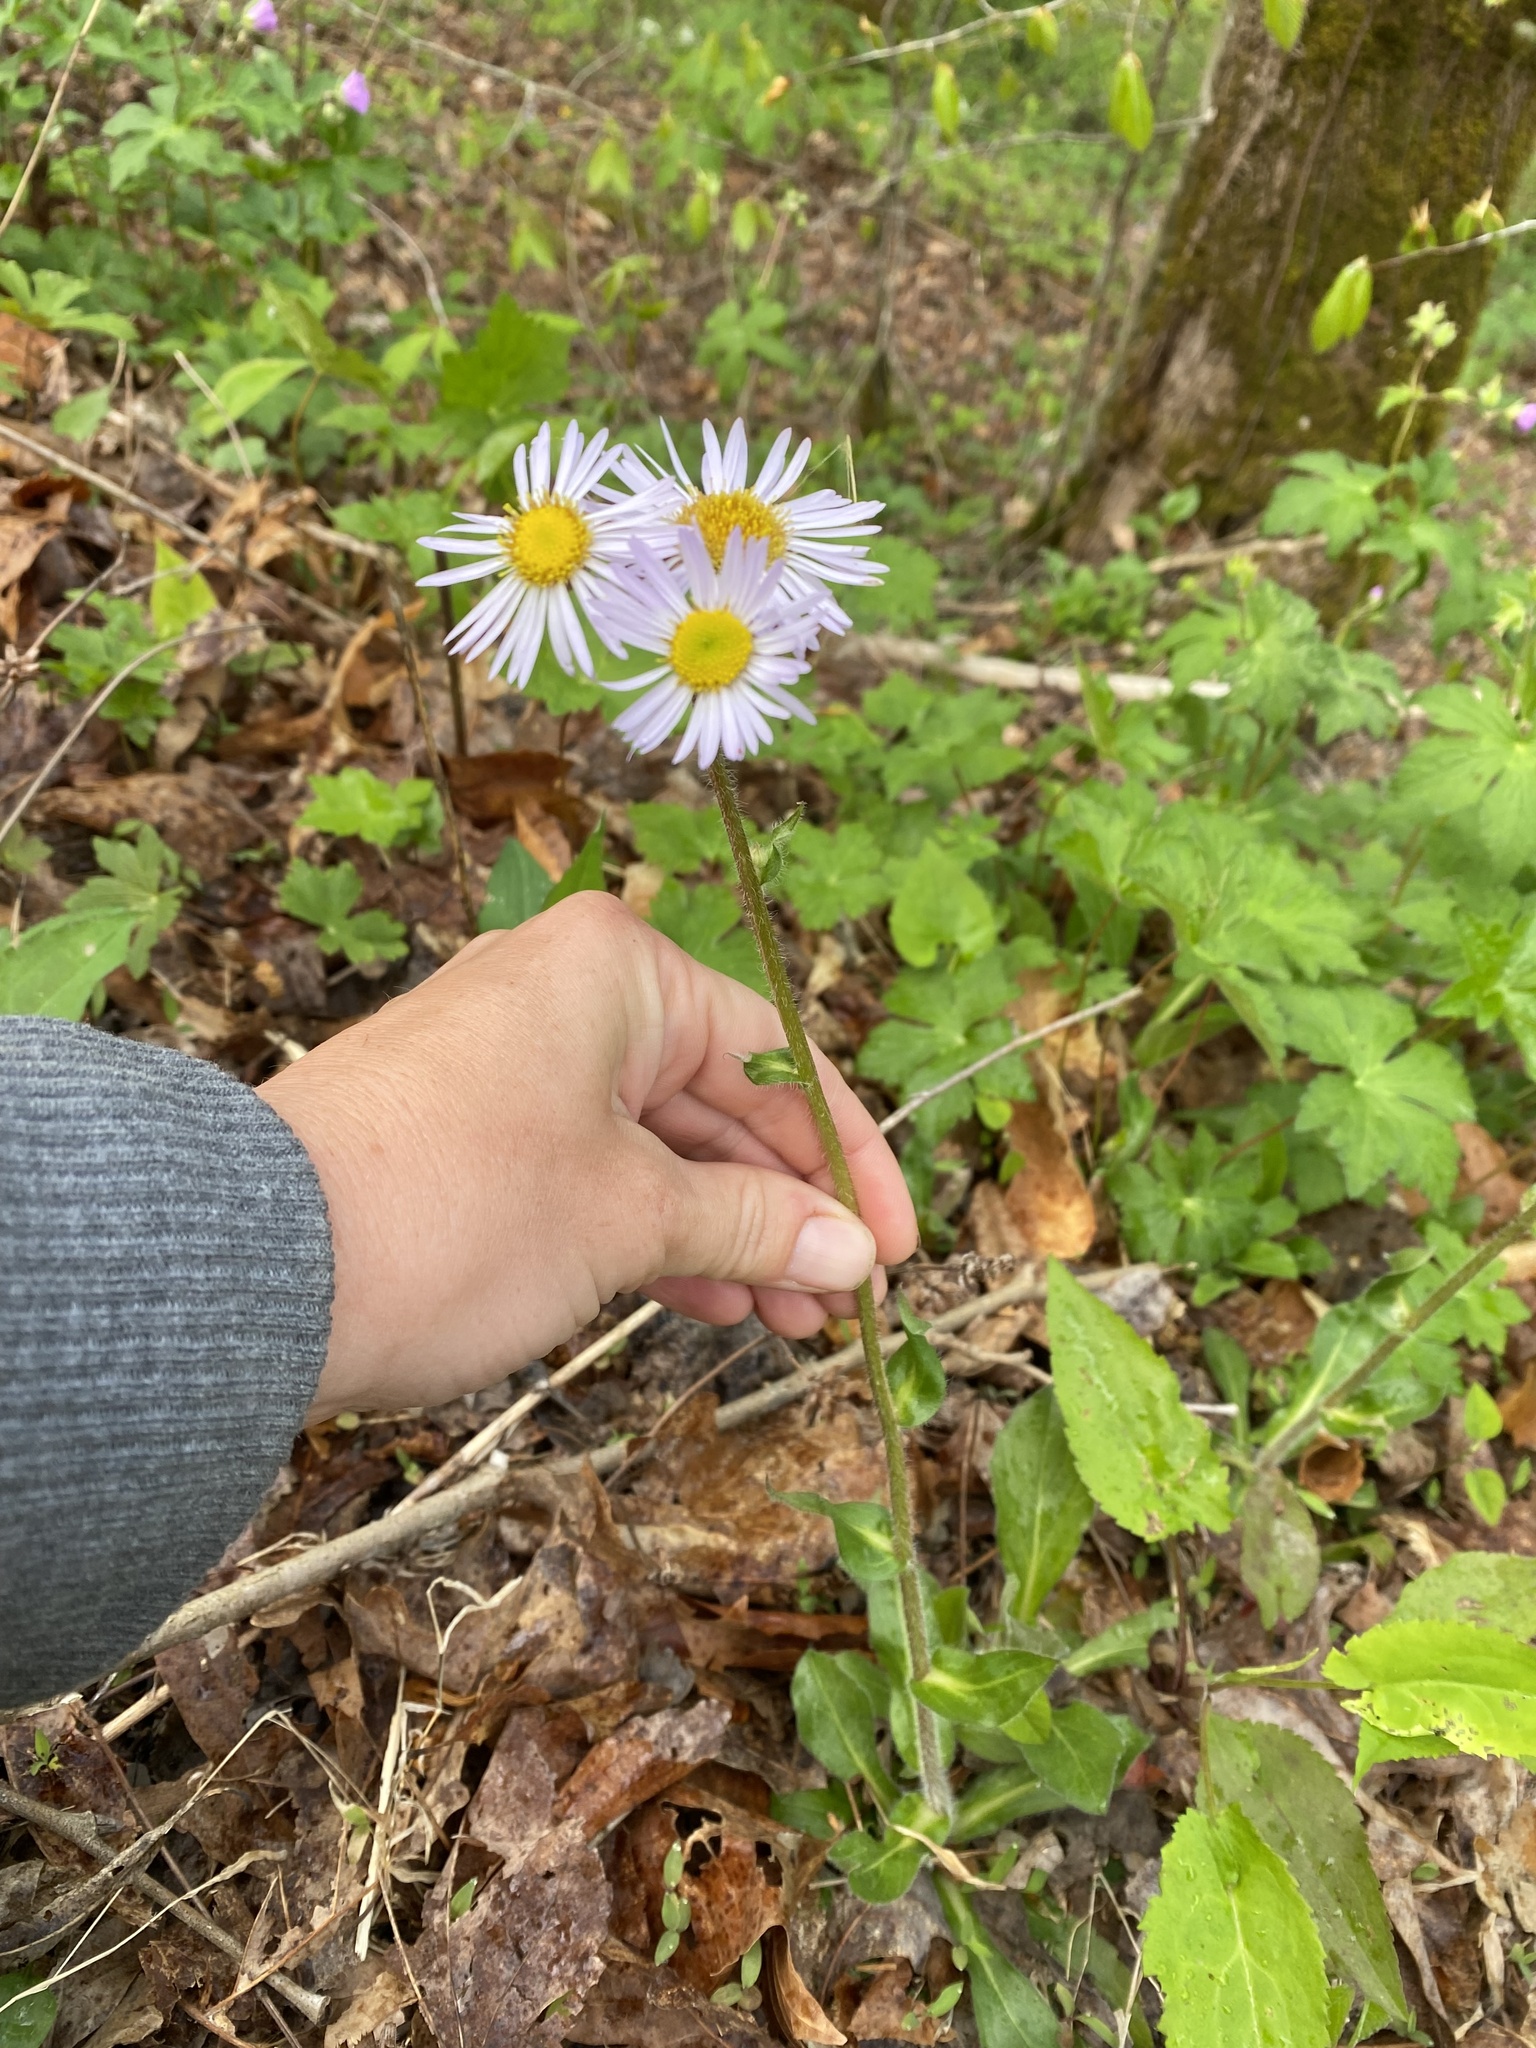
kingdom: Plantae
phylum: Tracheophyta
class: Magnoliopsida
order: Asterales
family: Asteraceae
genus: Erigeron
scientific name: Erigeron pulchellus
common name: Hairy fleabane
